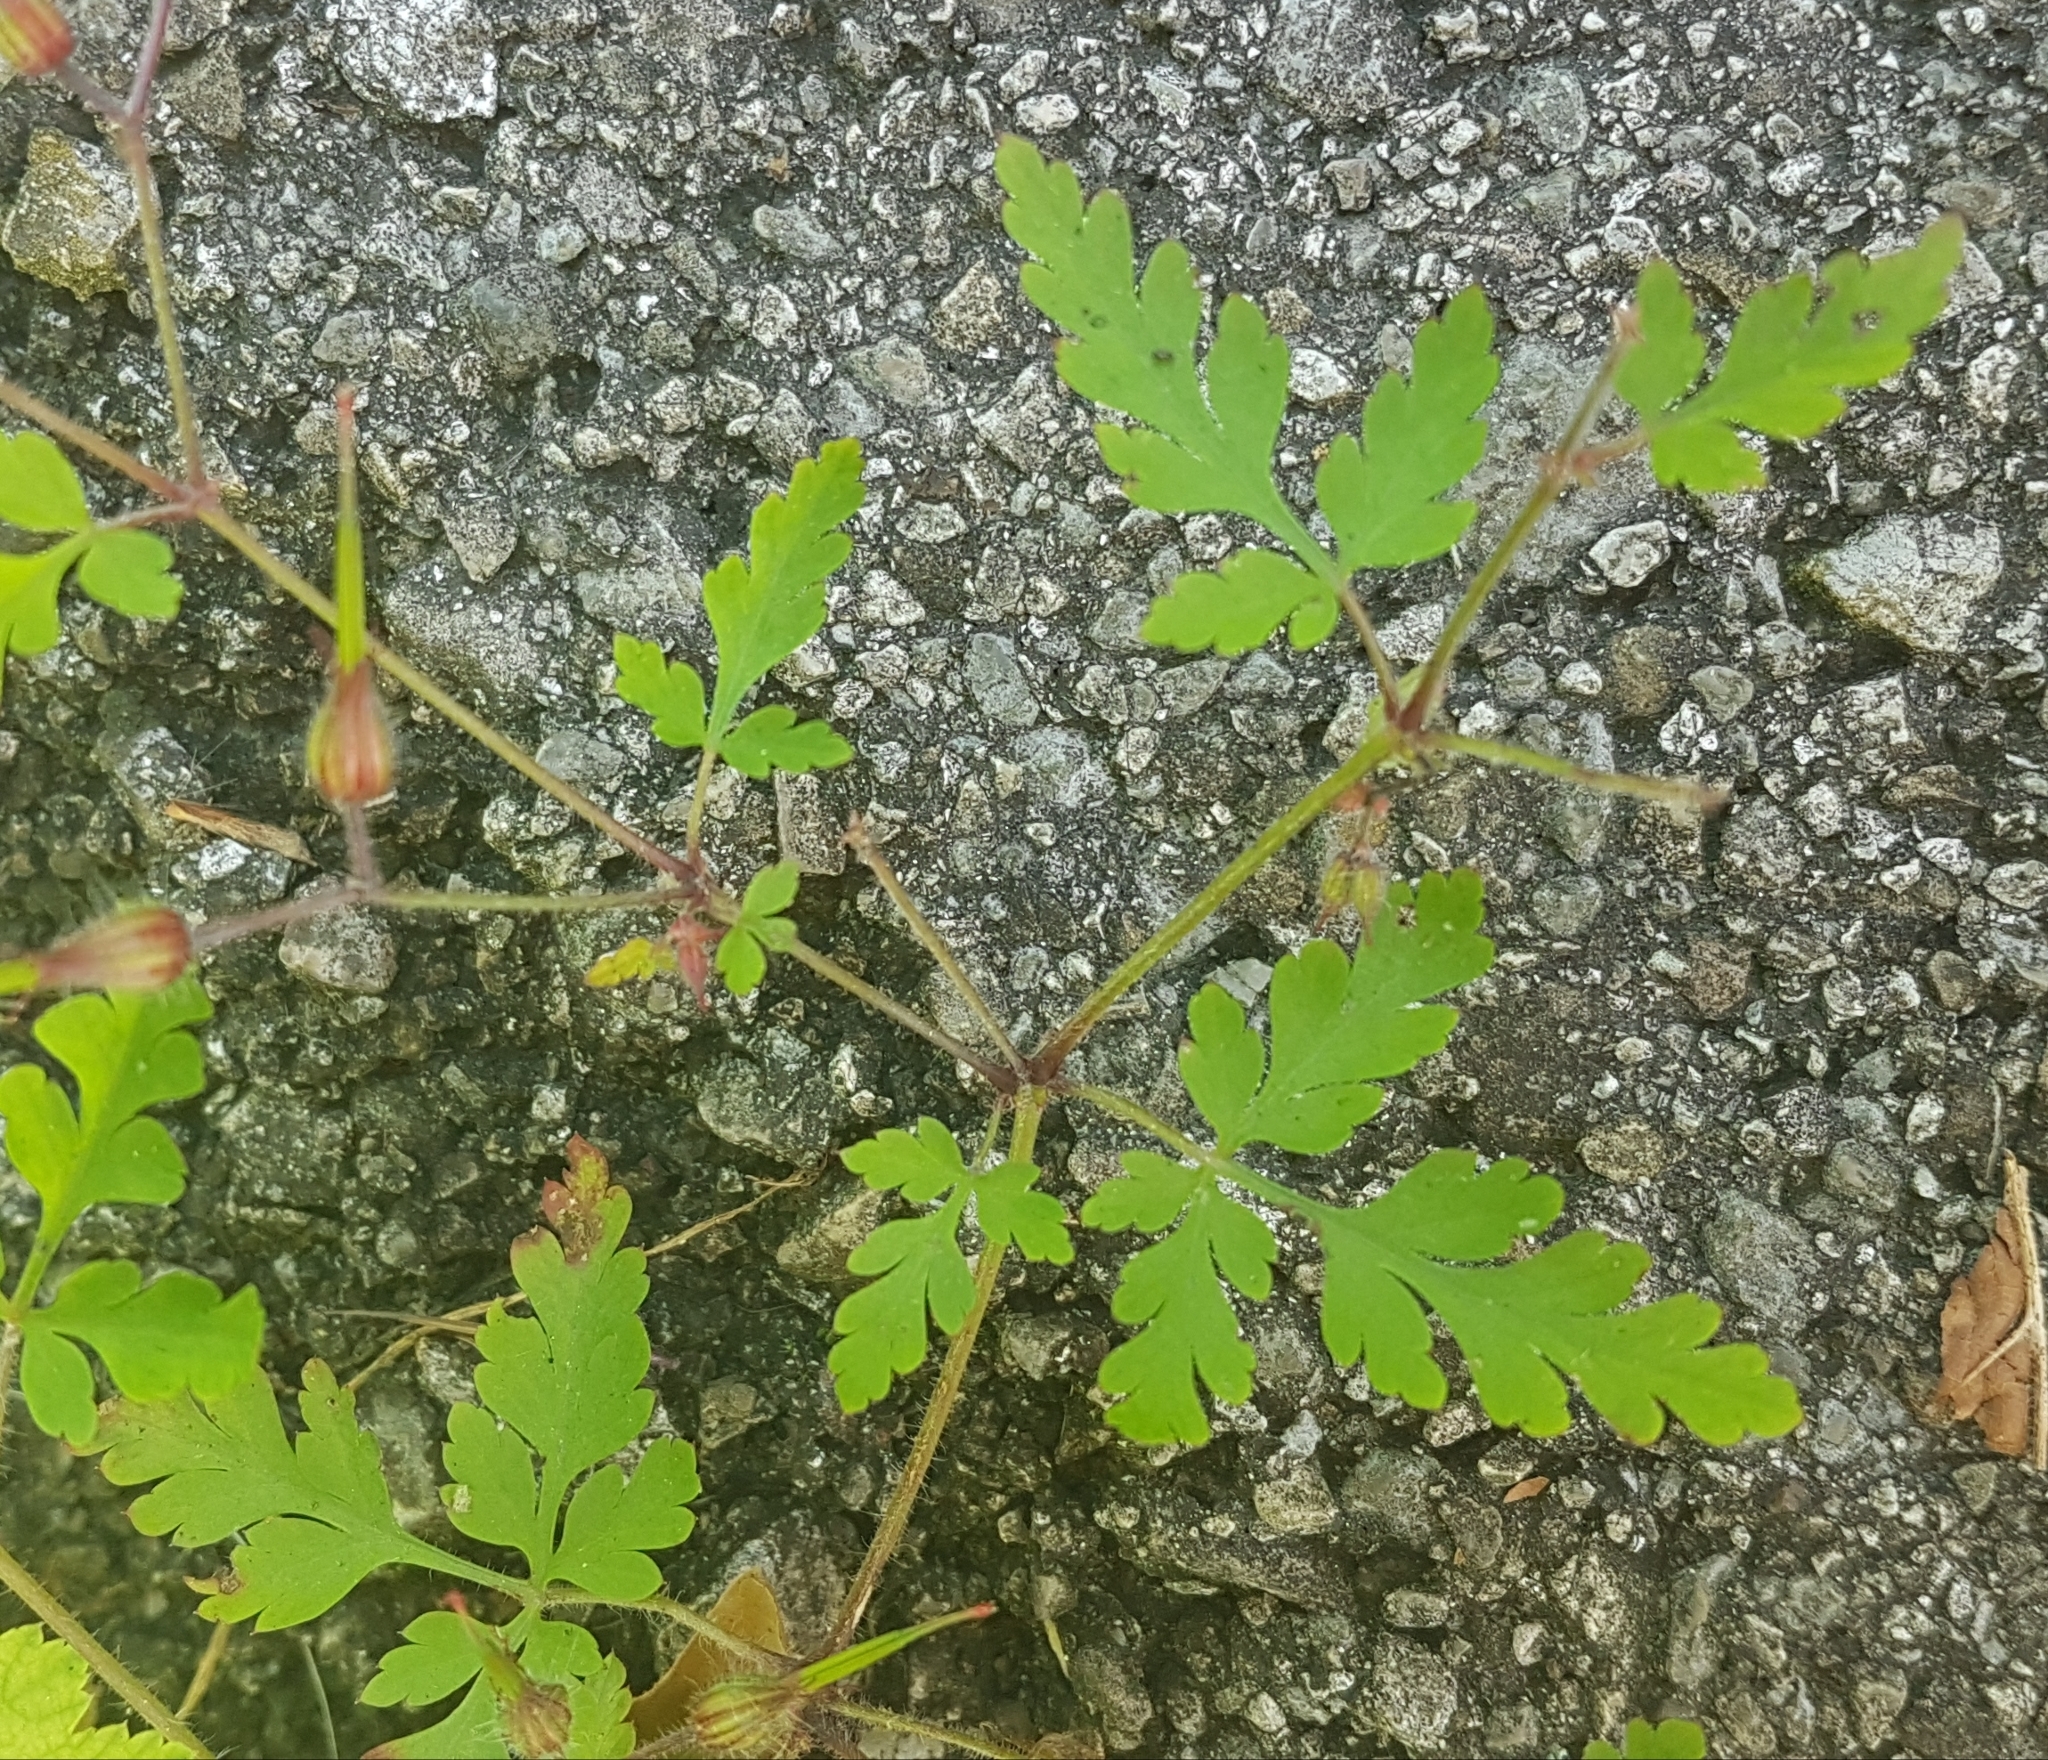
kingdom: Plantae
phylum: Tracheophyta
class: Magnoliopsida
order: Geraniales
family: Geraniaceae
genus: Geranium
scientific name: Geranium robertianum
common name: Herb-robert
